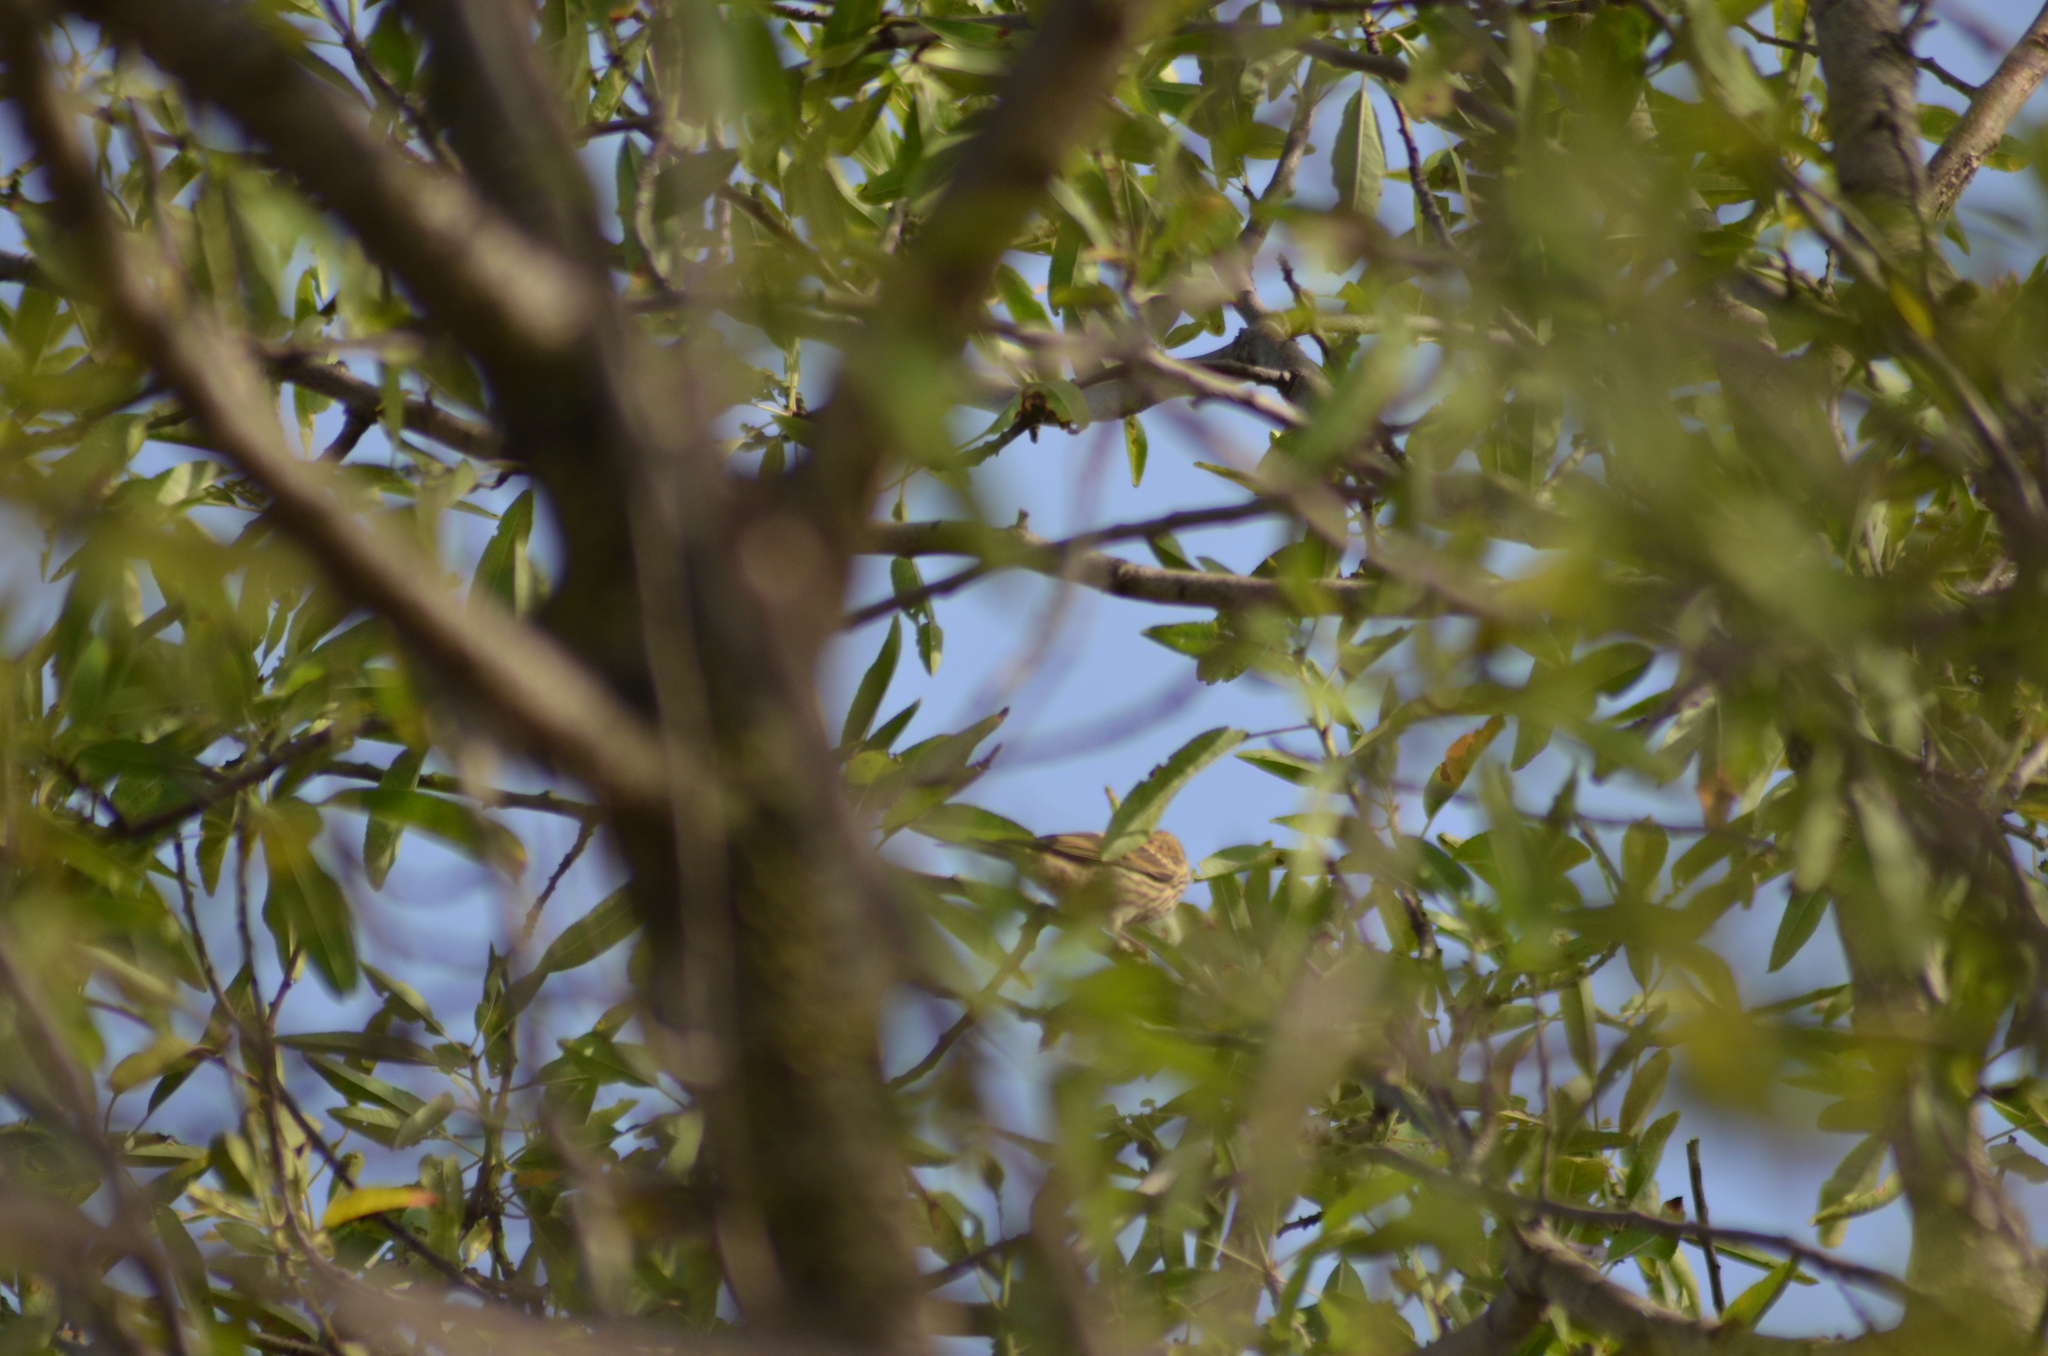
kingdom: Animalia
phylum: Chordata
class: Aves
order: Passeriformes
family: Fringillidae
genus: Serinus
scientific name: Serinus serinus
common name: European serin
